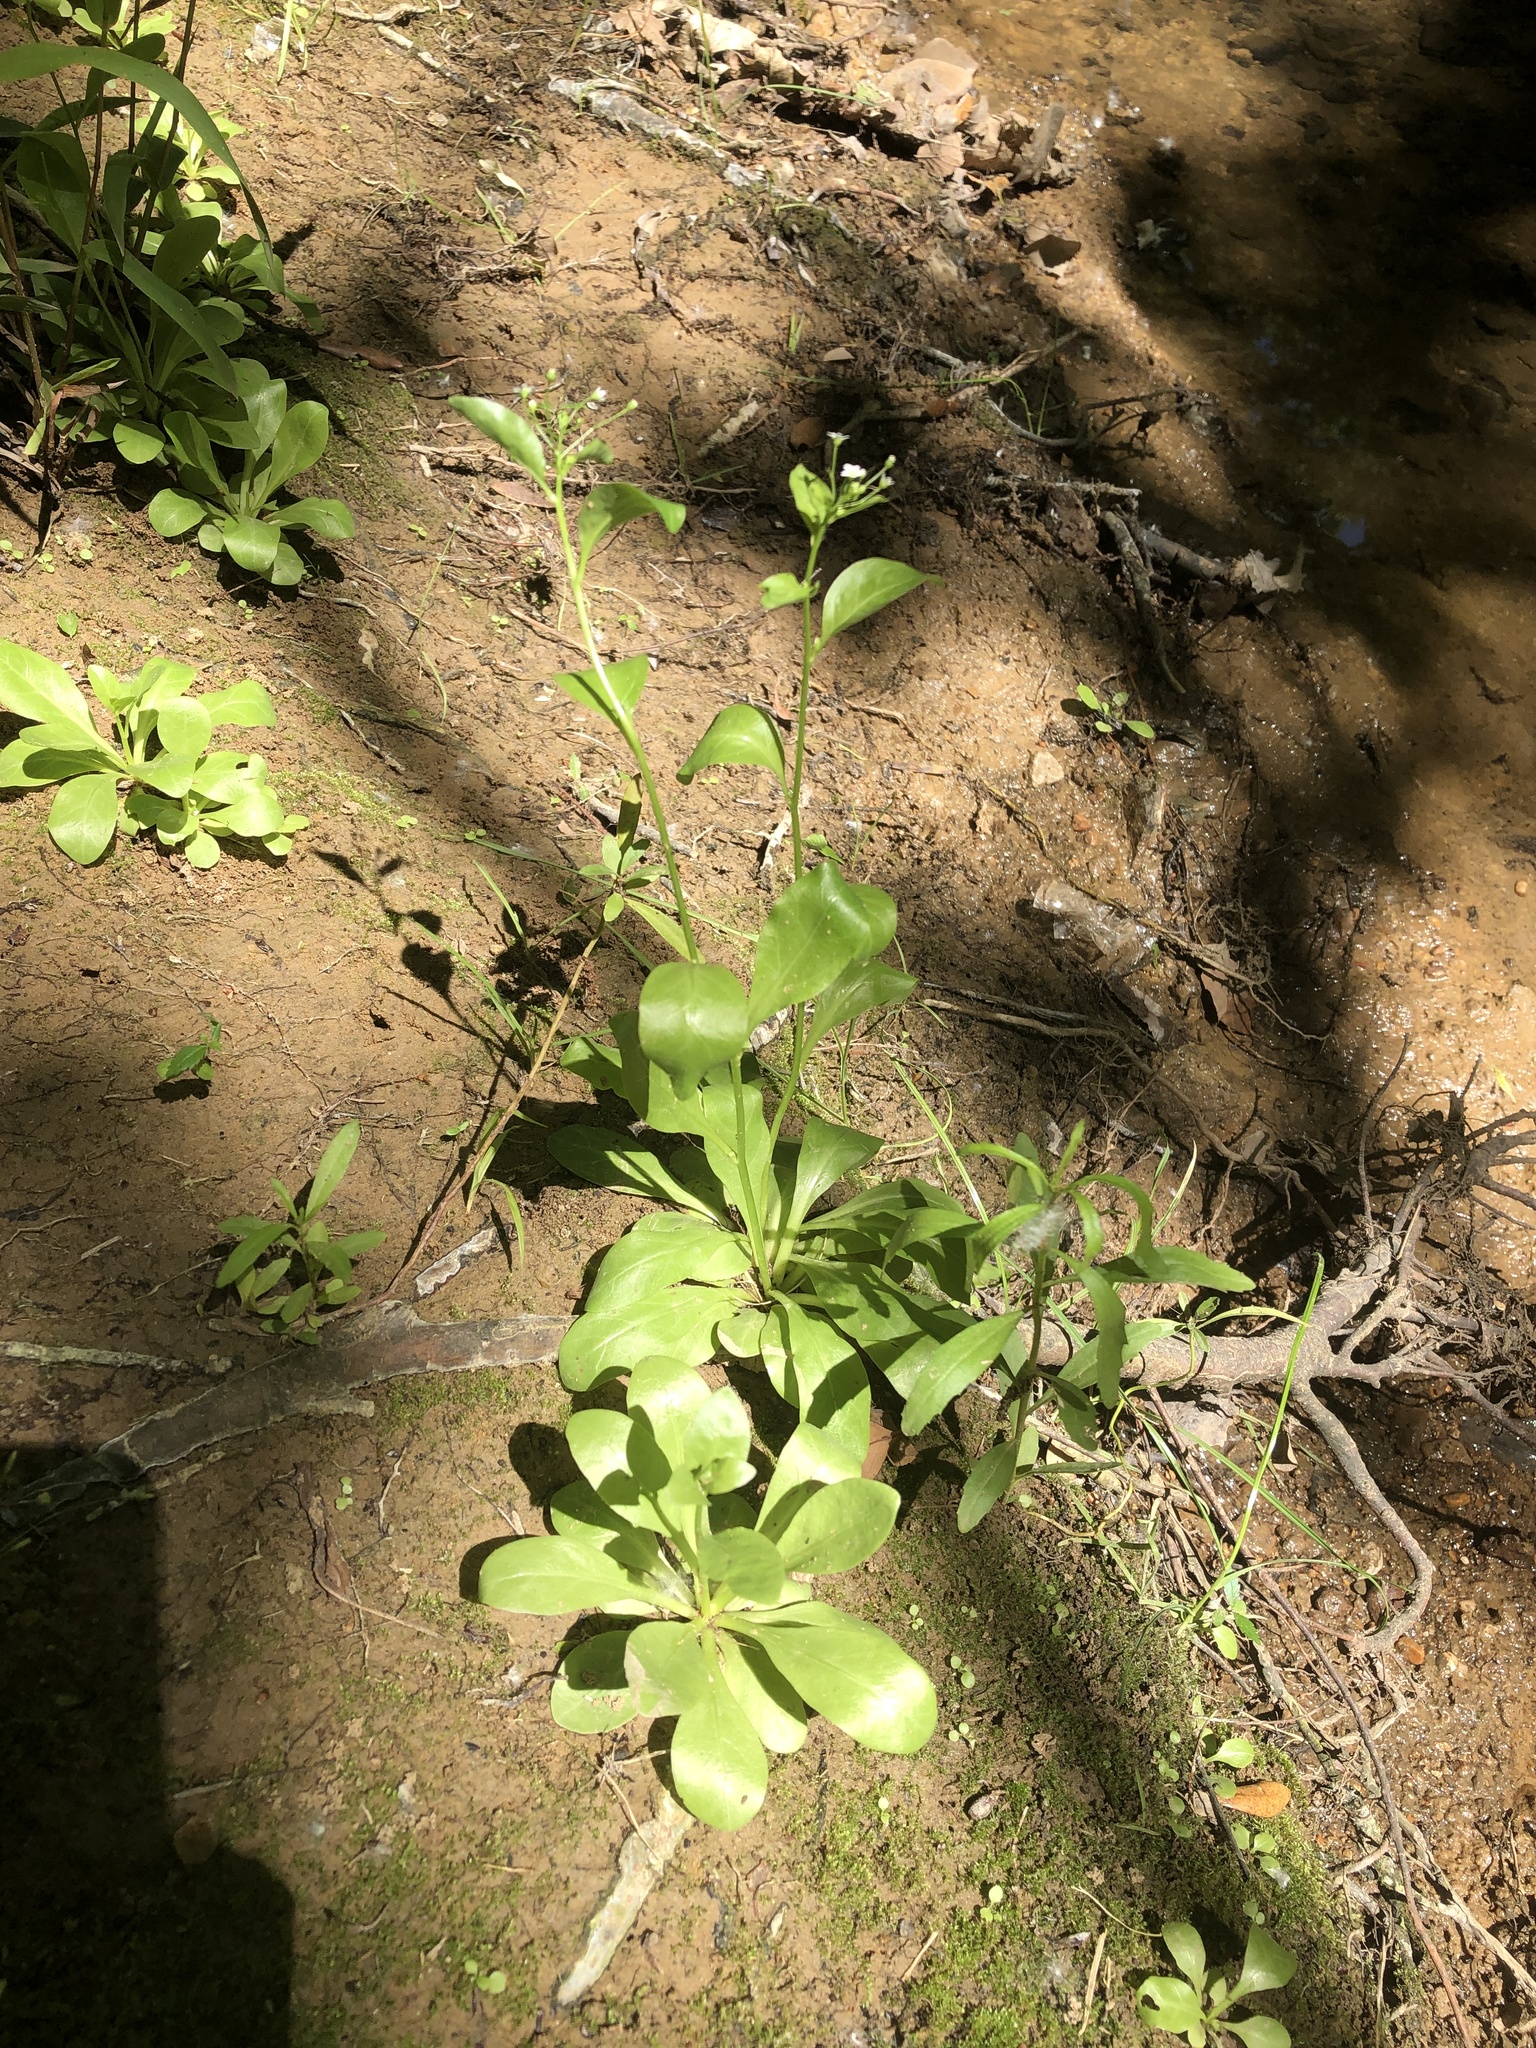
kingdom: Plantae
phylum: Tracheophyta
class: Magnoliopsida
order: Ericales
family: Primulaceae
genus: Samolus
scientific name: Samolus parviflorus
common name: False water pimpernel
